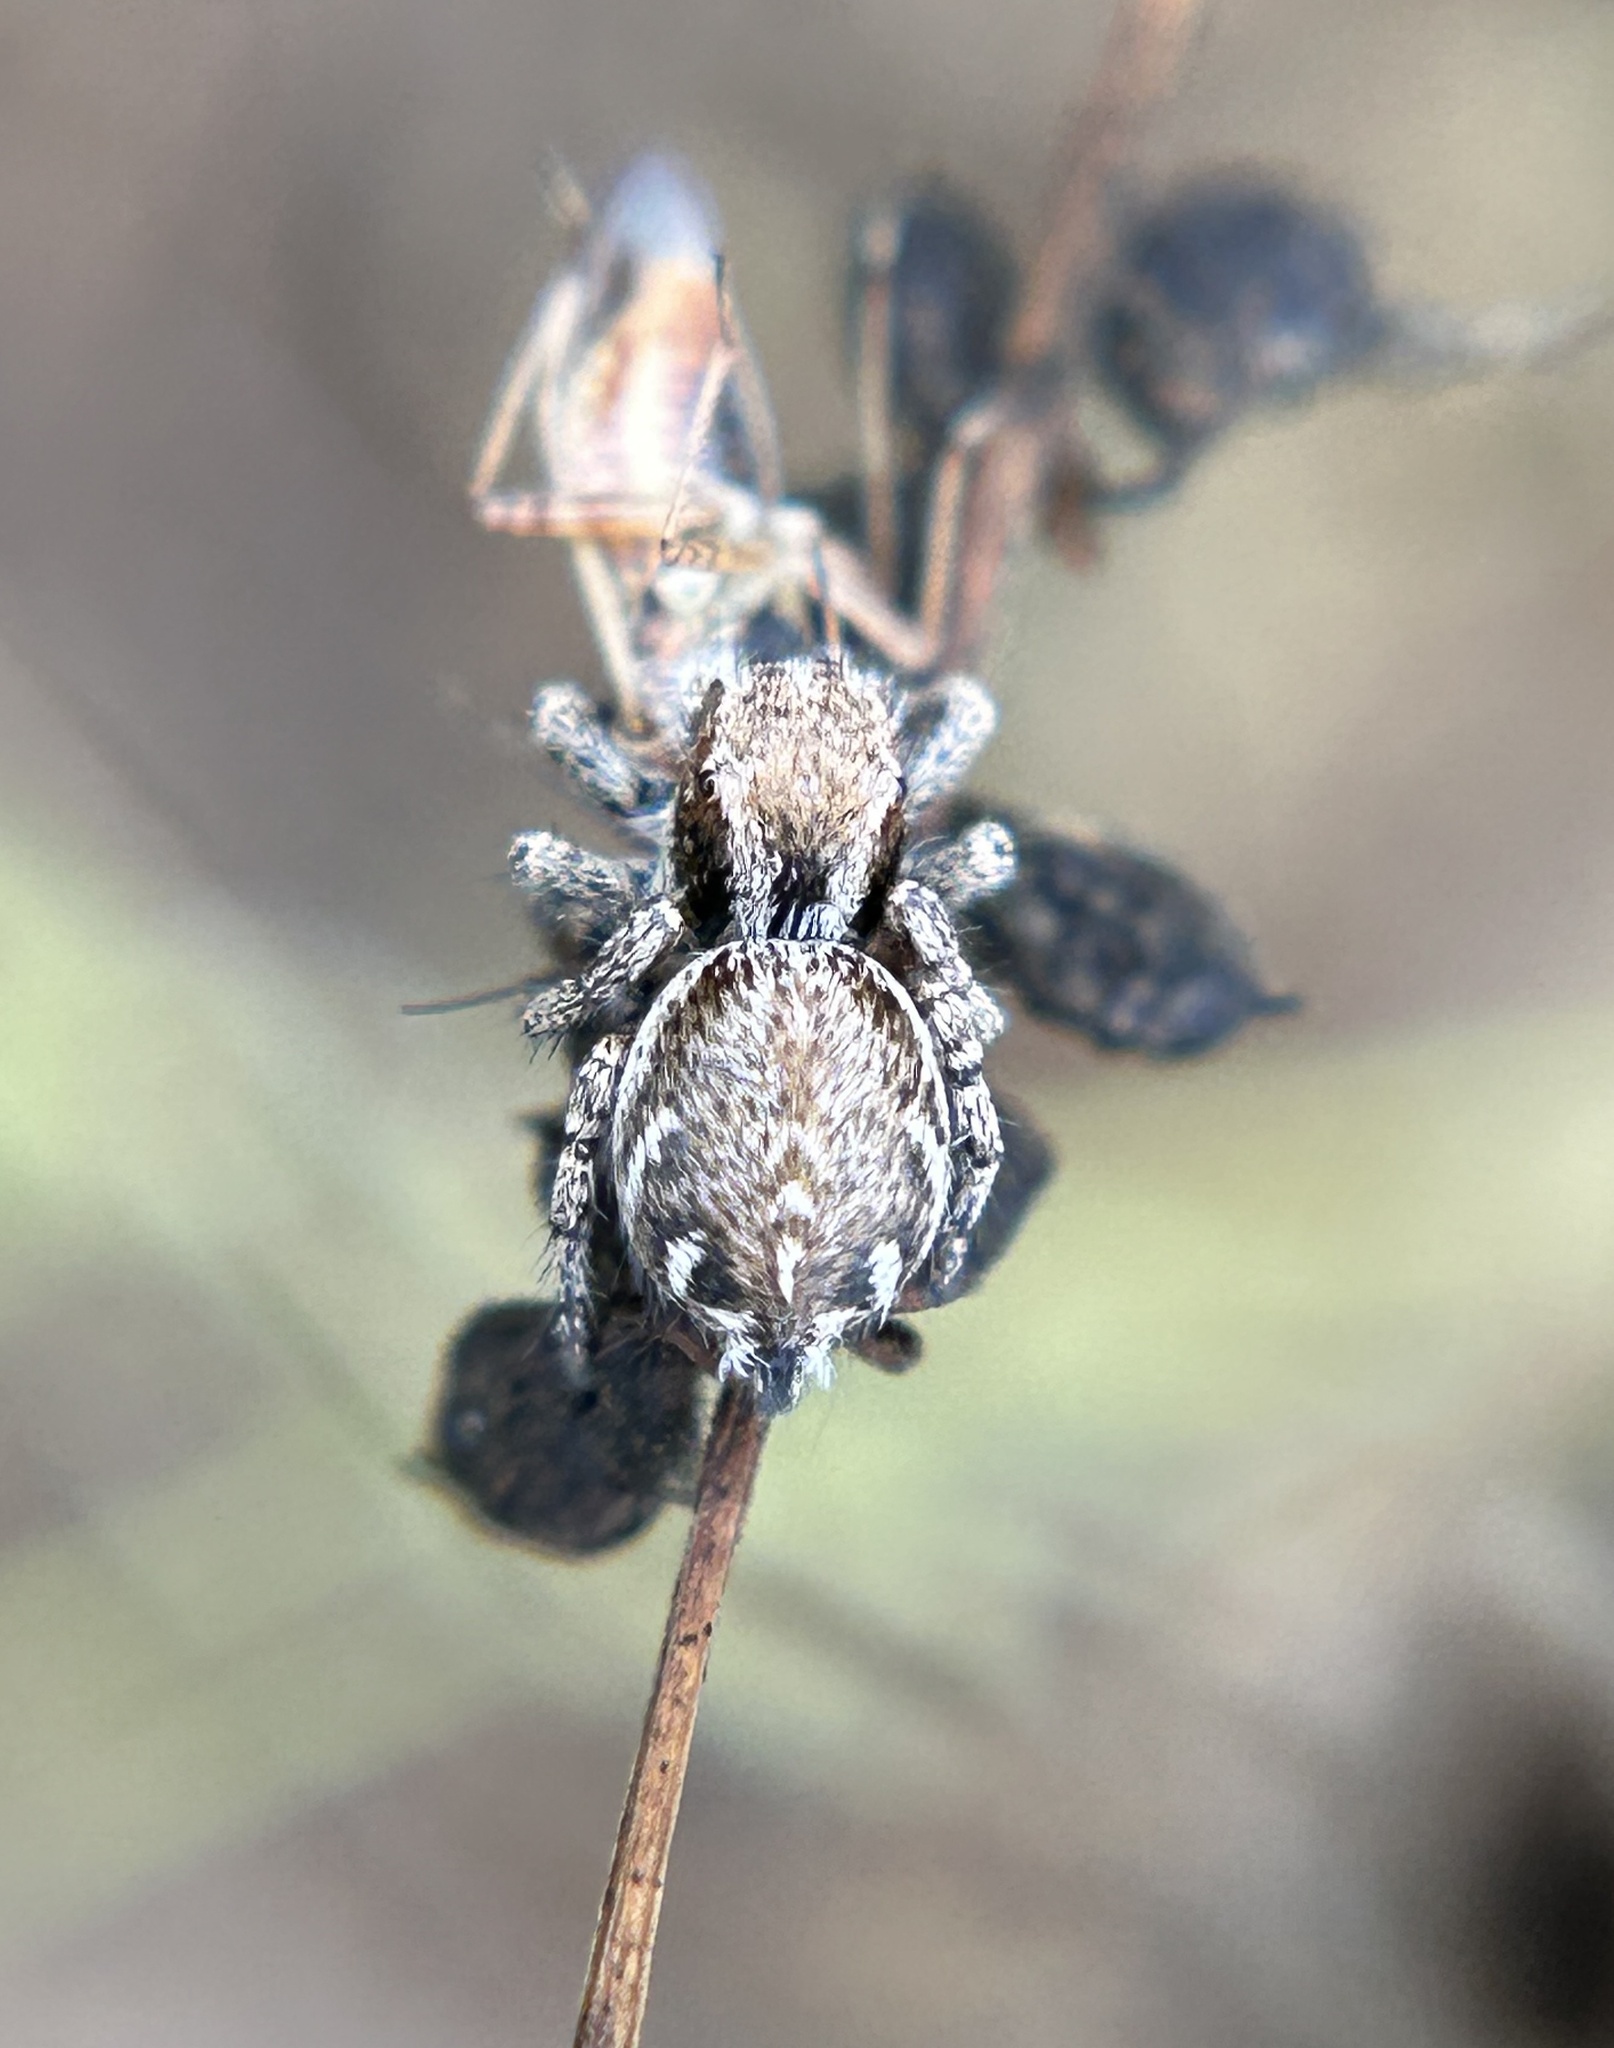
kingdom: Animalia
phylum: Arthropoda
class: Arachnida
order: Araneae
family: Salticidae
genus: Habronattus
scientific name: Habronattus oregonensis
